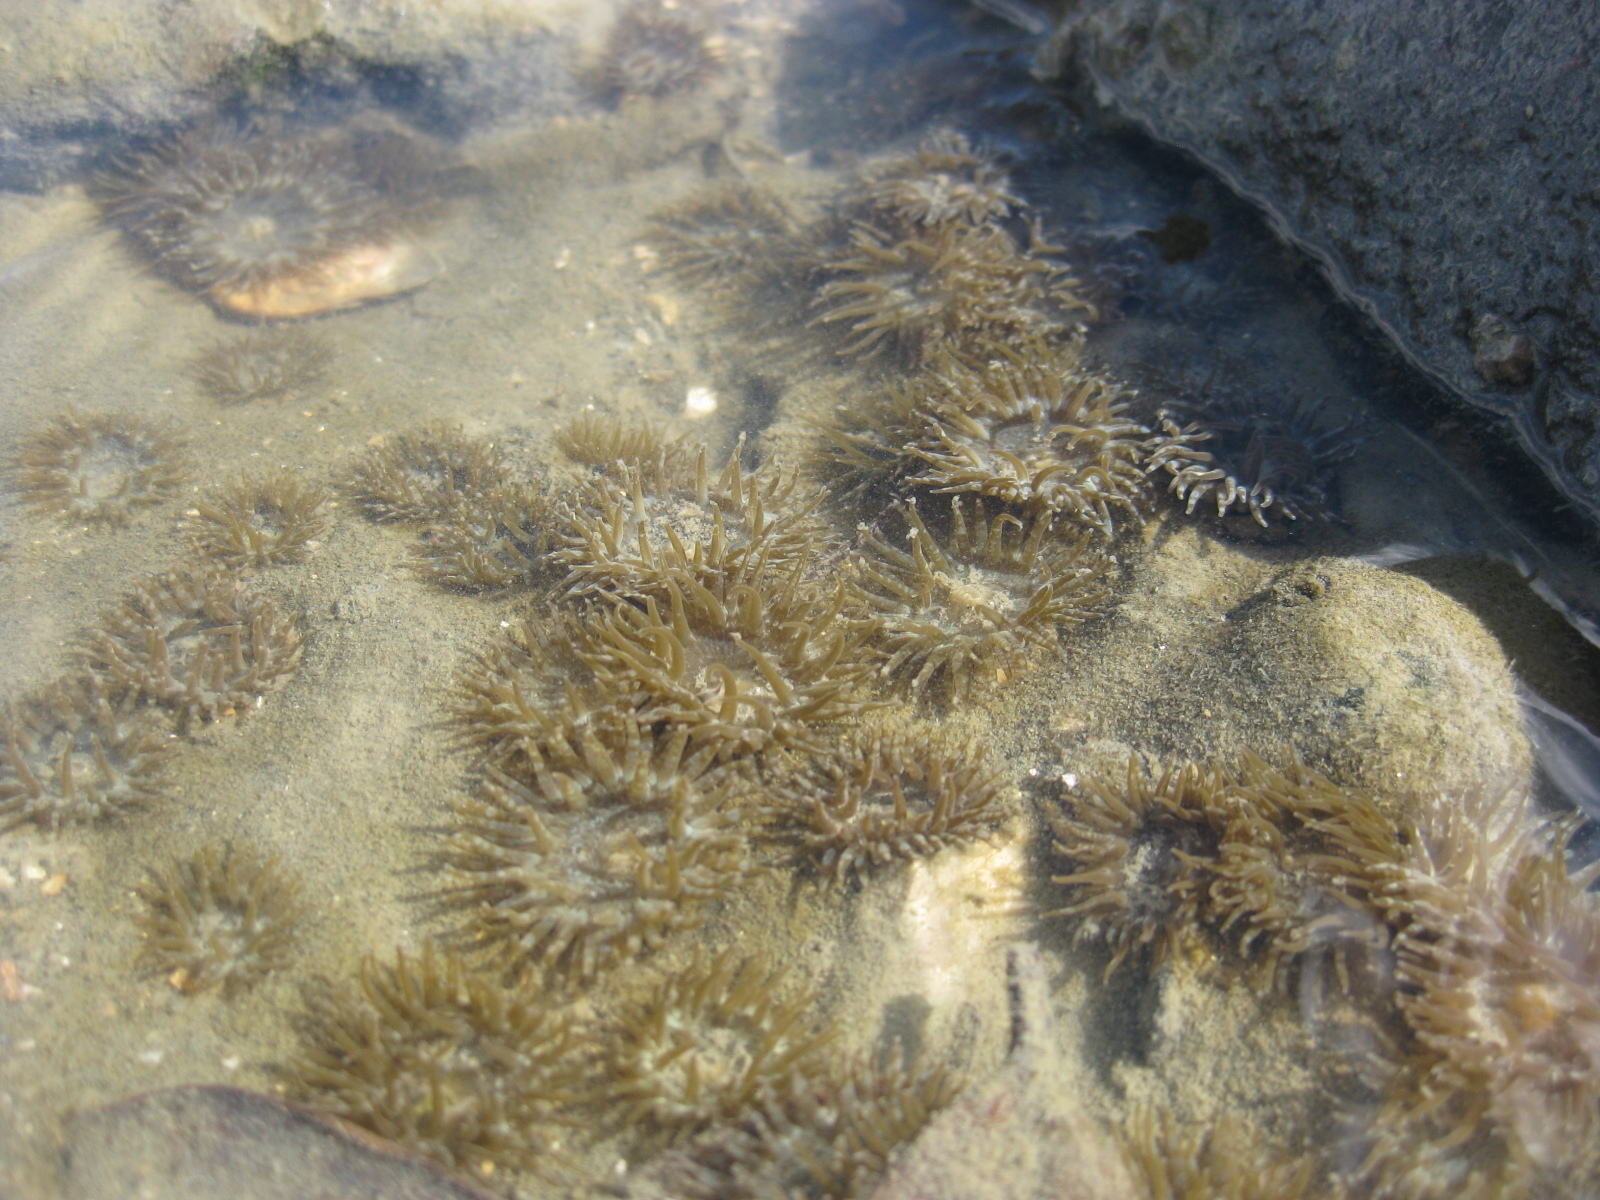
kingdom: Animalia
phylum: Cnidaria
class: Anthozoa
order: Actiniaria
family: Actiniidae
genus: Anthopleura
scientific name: Anthopleura hermaphroditica
